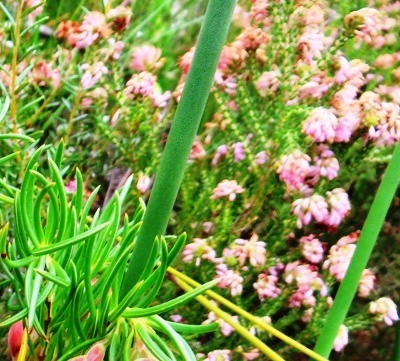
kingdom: Plantae
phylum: Tracheophyta
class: Magnoliopsida
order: Ericales
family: Ericaceae
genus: Erica
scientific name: Erica ecklonii
